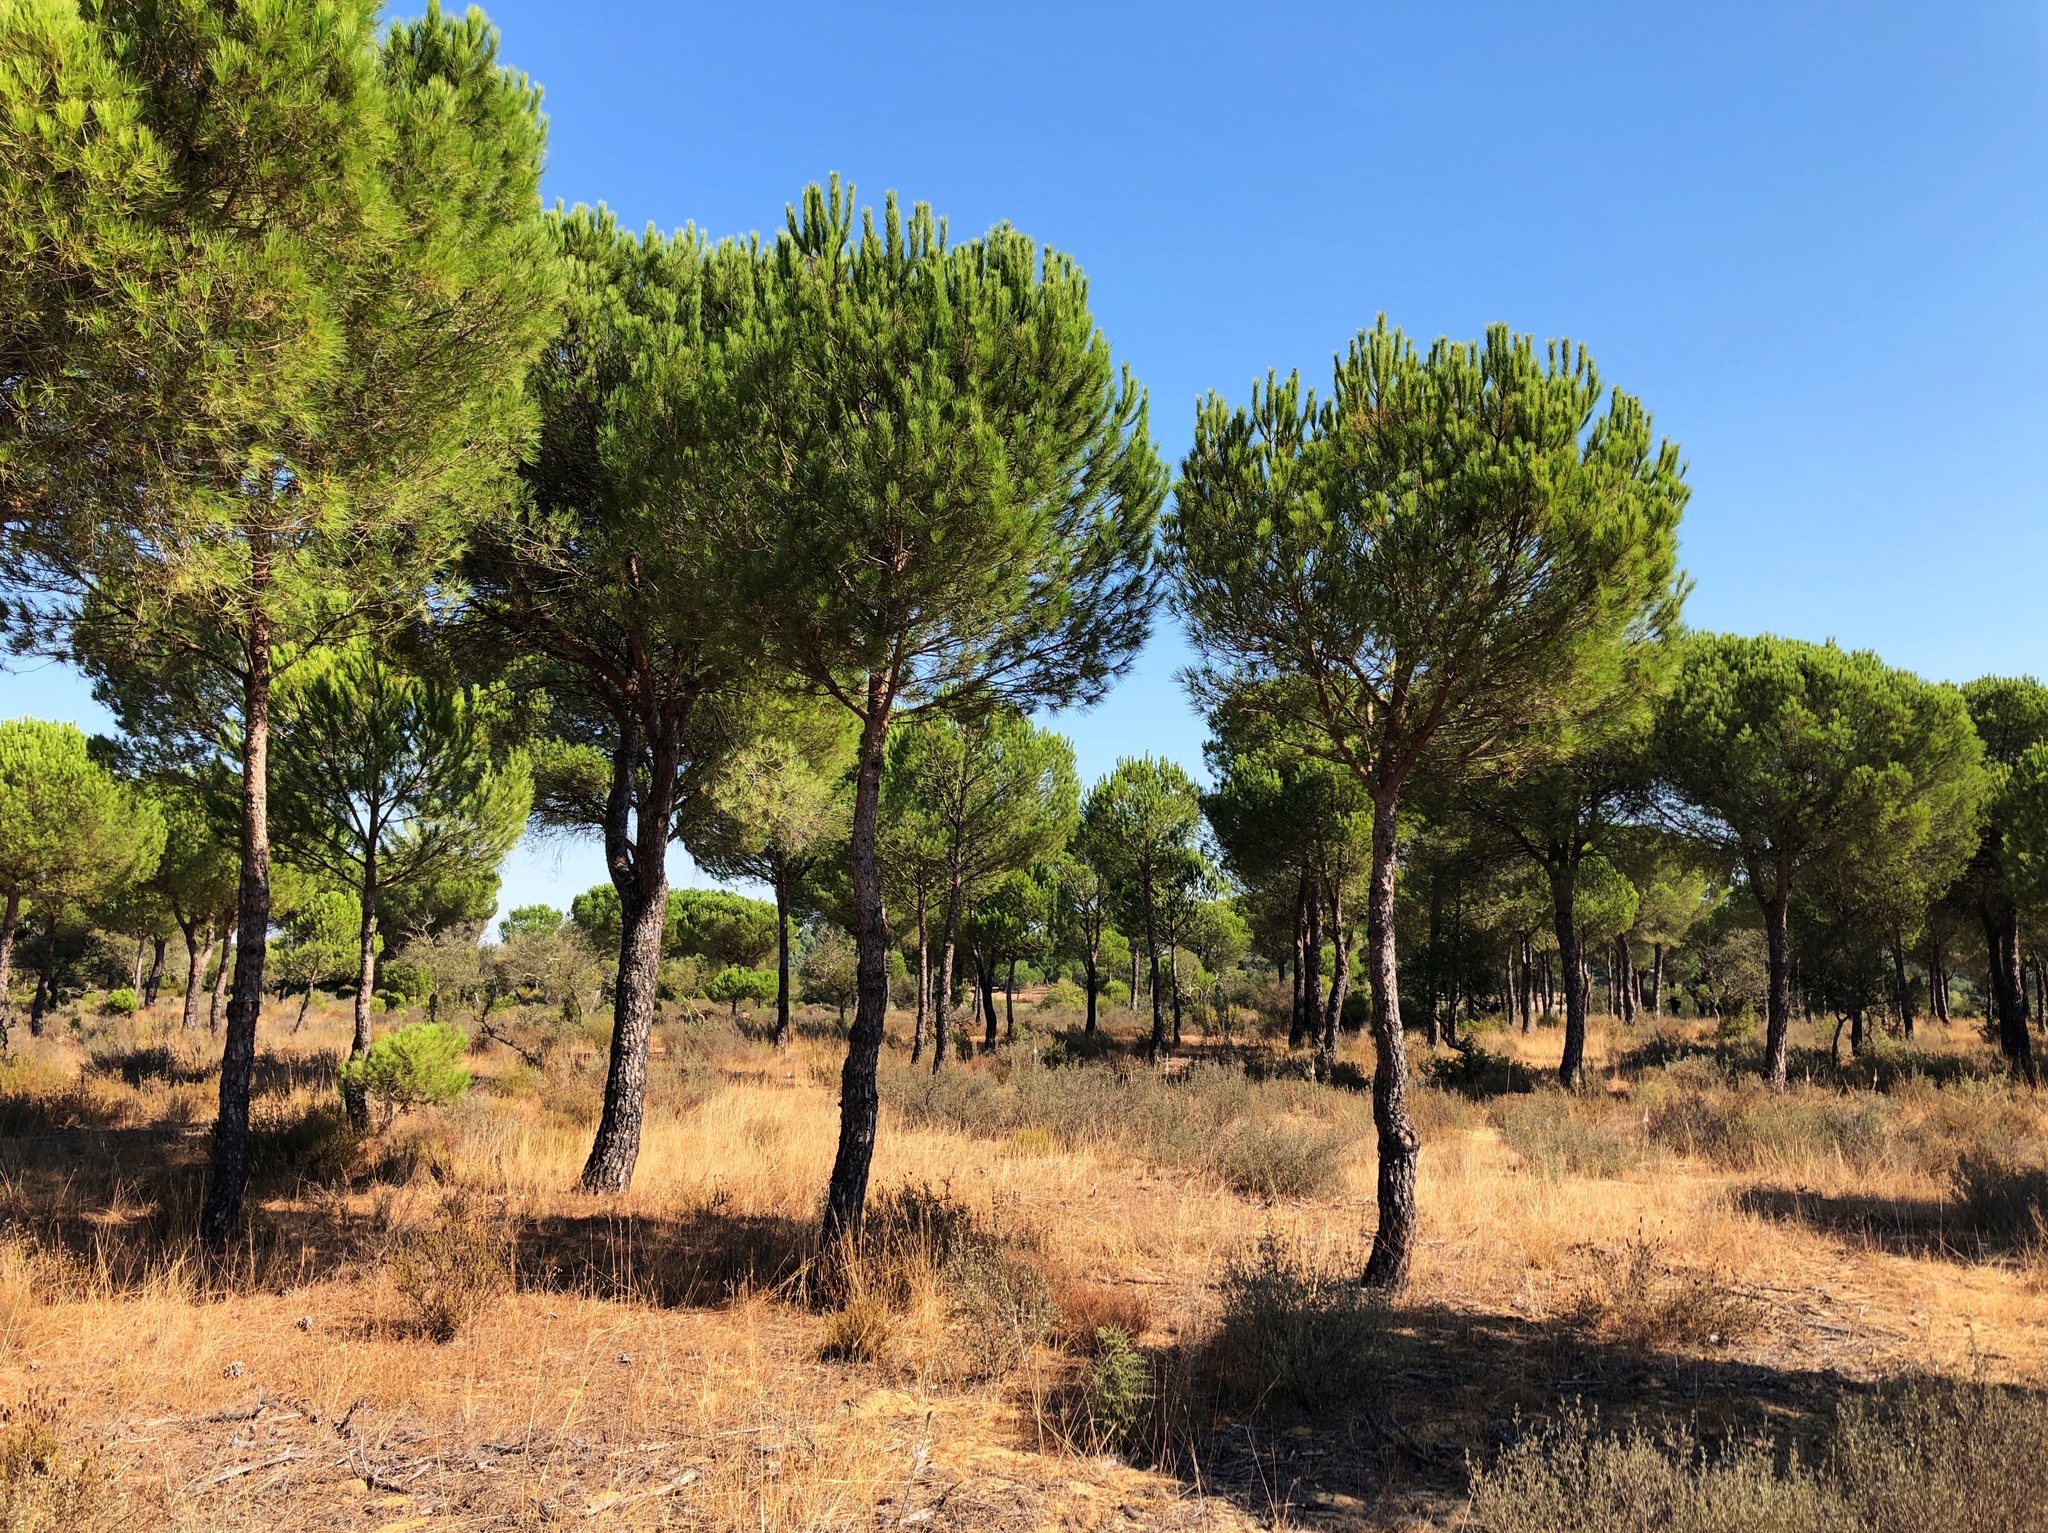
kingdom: Plantae
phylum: Tracheophyta
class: Pinopsida
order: Pinales
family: Pinaceae
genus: Pinus
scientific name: Pinus pinea
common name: Italian stone pine
